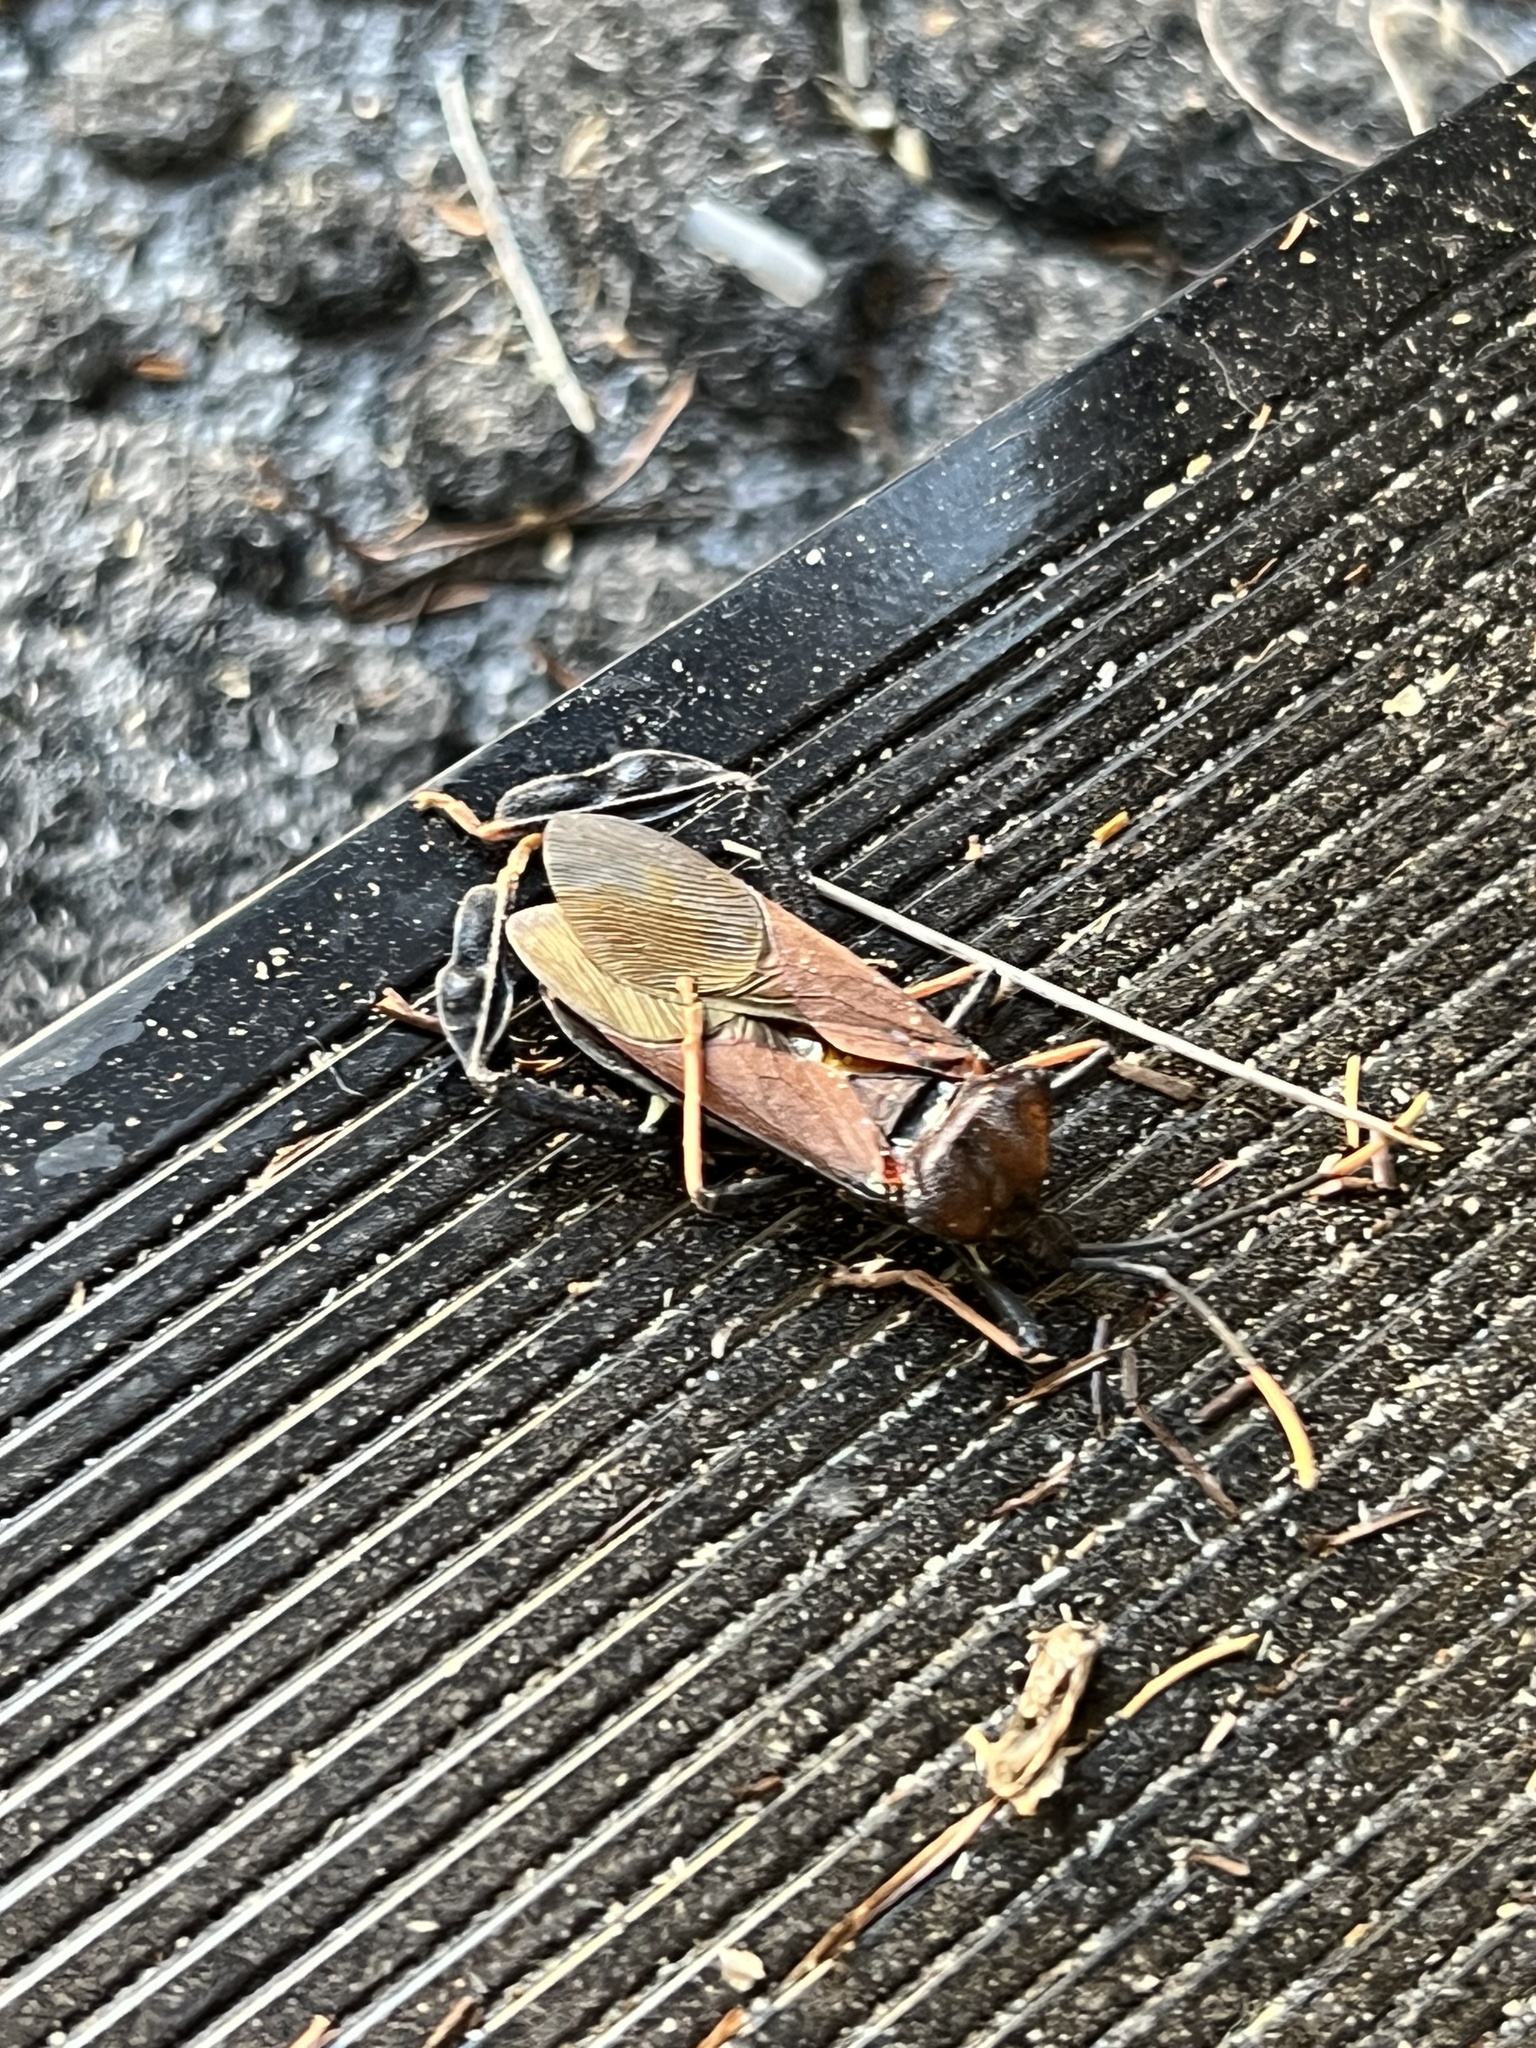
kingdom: Animalia
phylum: Arthropoda
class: Insecta
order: Hemiptera
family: Coreidae
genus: Acanthocephala
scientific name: Acanthocephala thomasi
